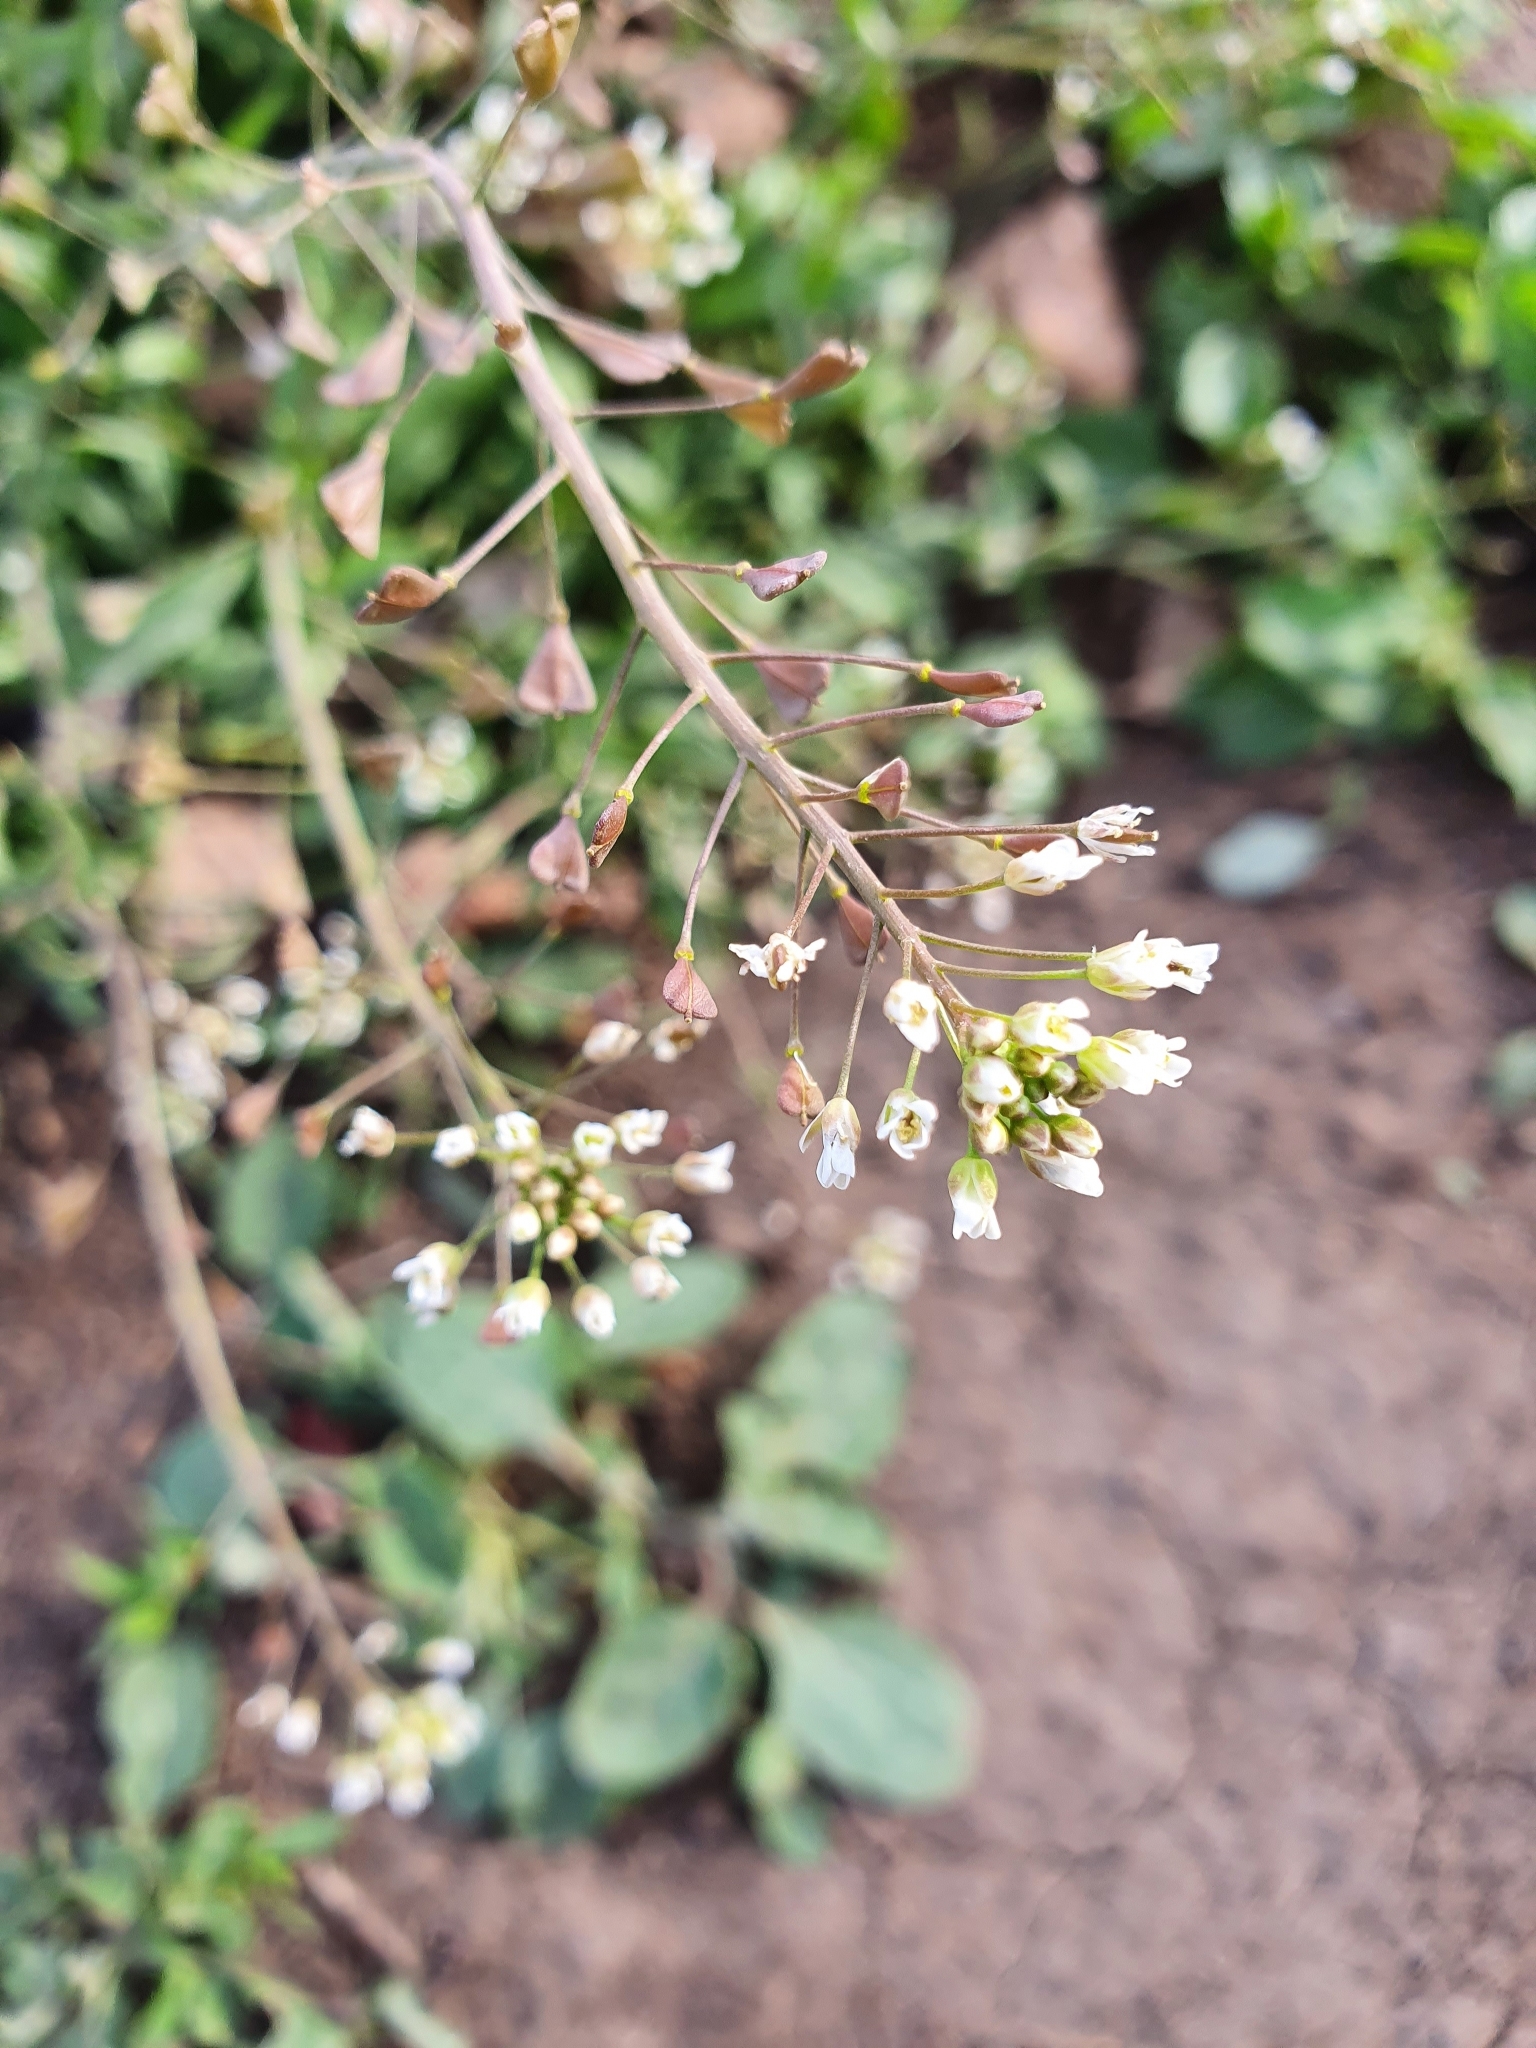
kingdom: Plantae
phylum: Tracheophyta
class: Magnoliopsida
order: Brassicales
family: Brassicaceae
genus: Capsella
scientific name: Capsella bursa-pastoris
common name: Shepherd's purse
